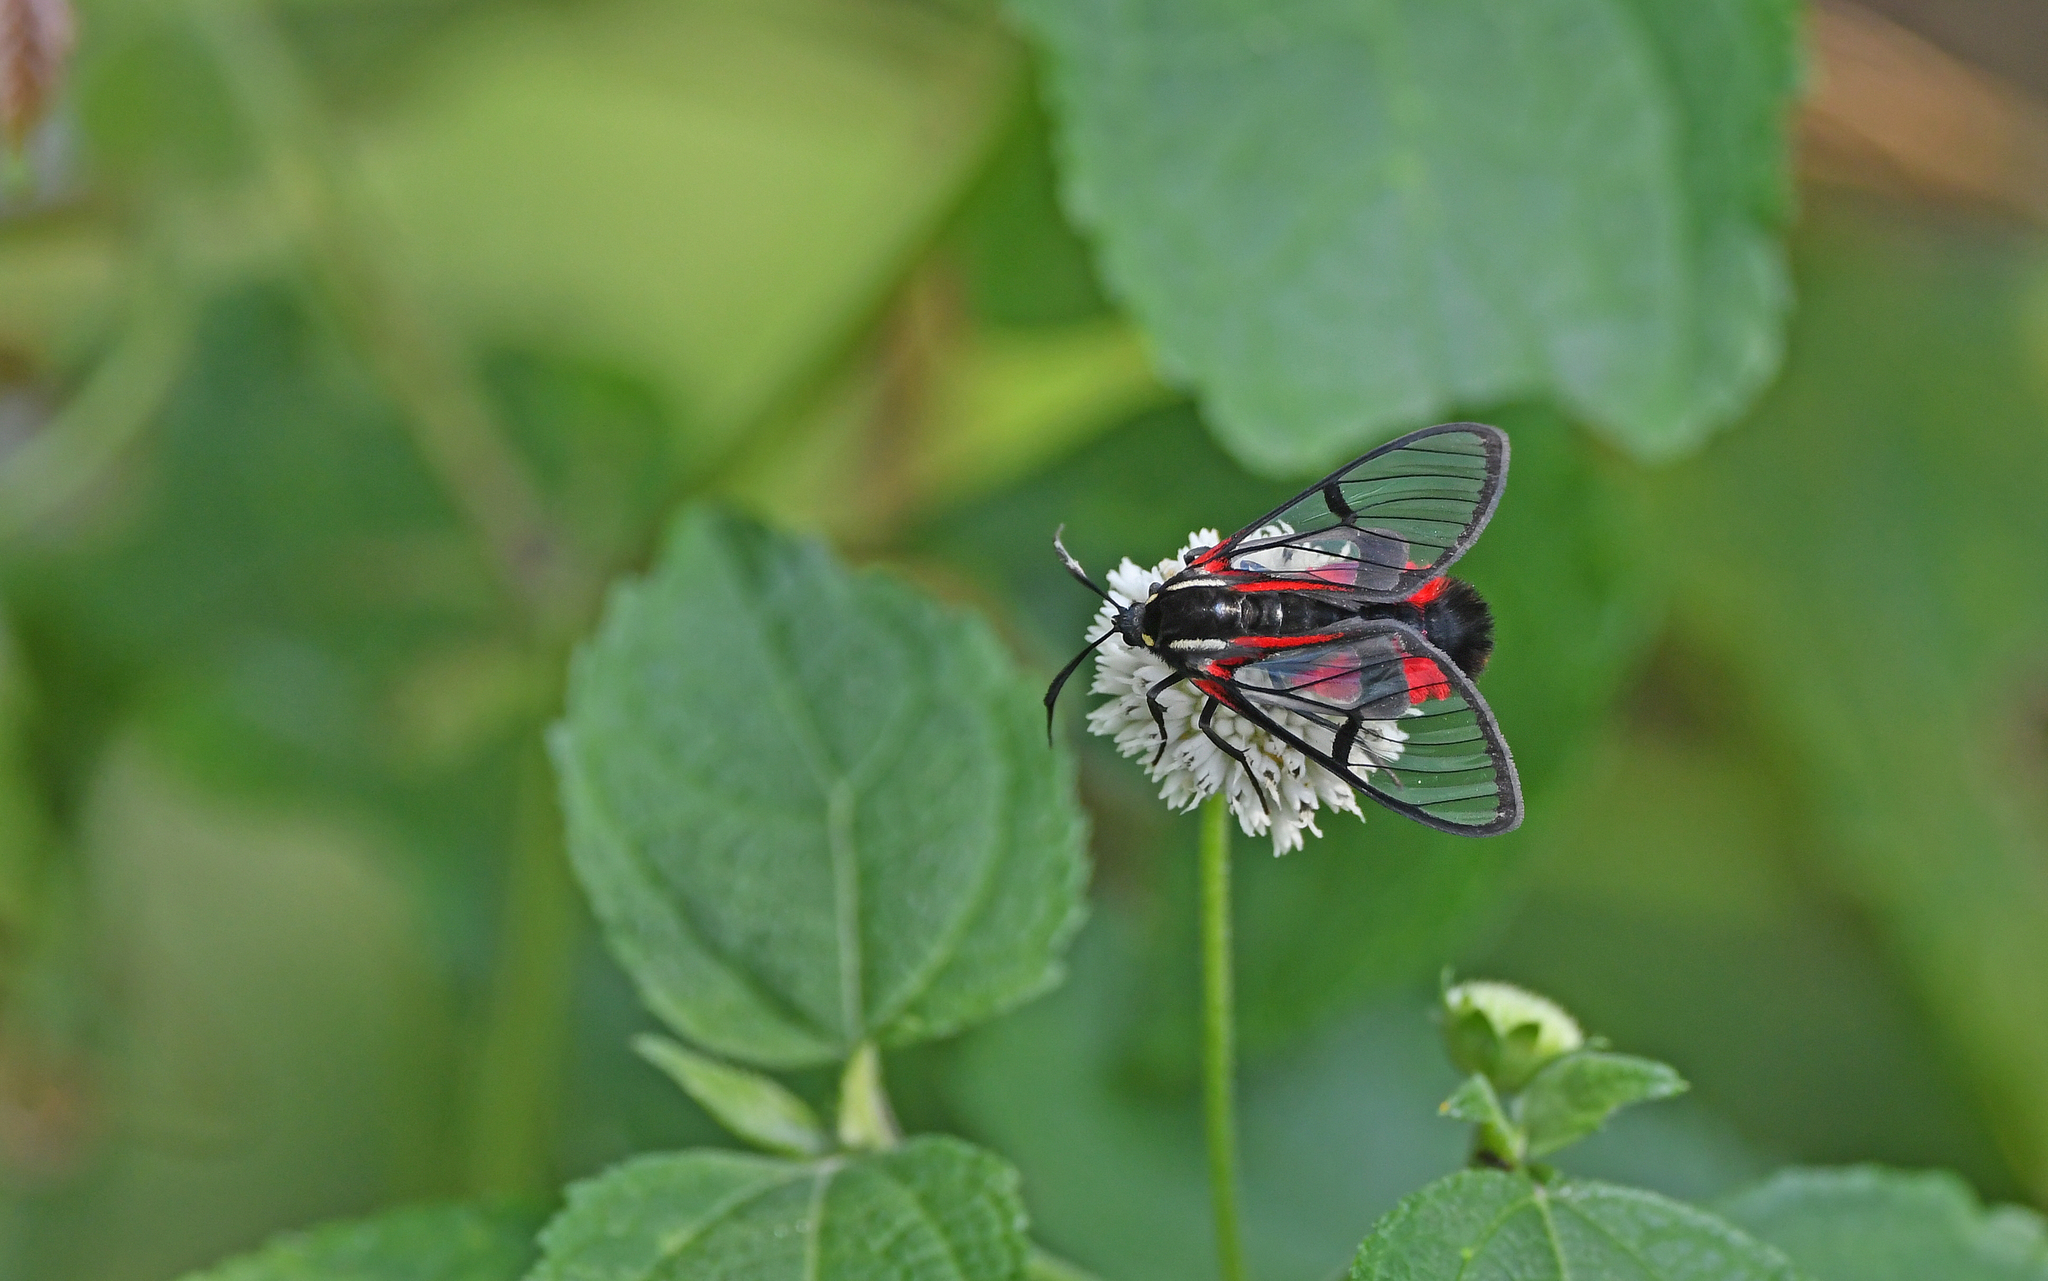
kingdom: Animalia
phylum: Arthropoda
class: Insecta
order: Lepidoptera
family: Erebidae
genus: Dinia
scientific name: Dinia mena
